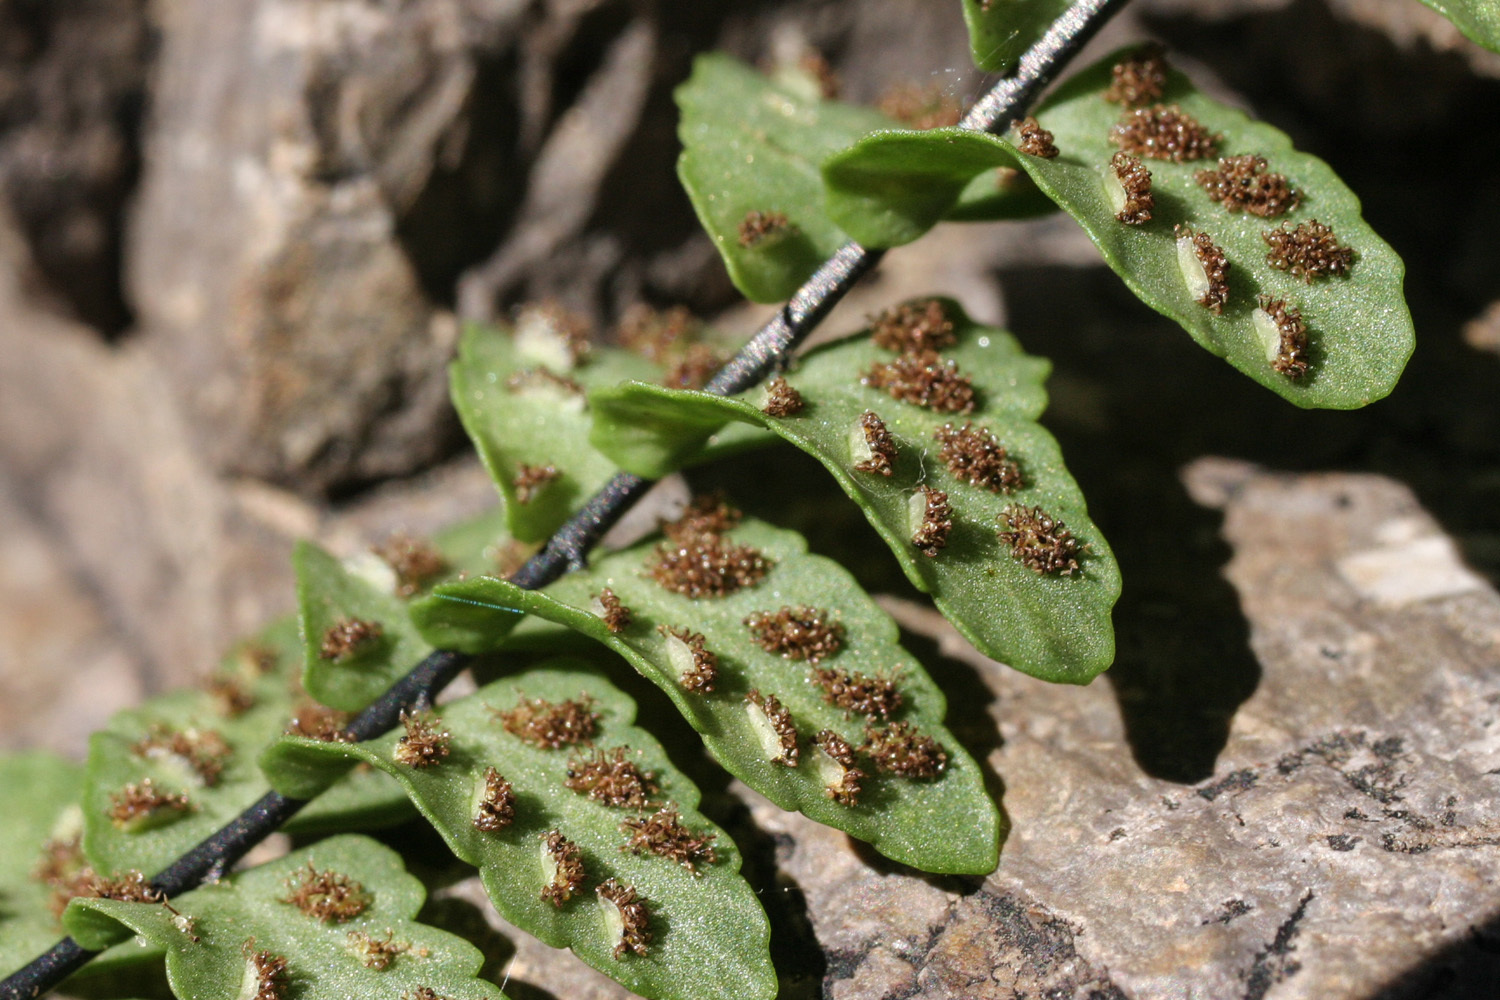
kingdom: Plantae
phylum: Tracheophyta
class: Polypodiopsida
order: Polypodiales
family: Aspleniaceae
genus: Asplenium
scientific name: Asplenium resiliens
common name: Blackstem spleenwort
